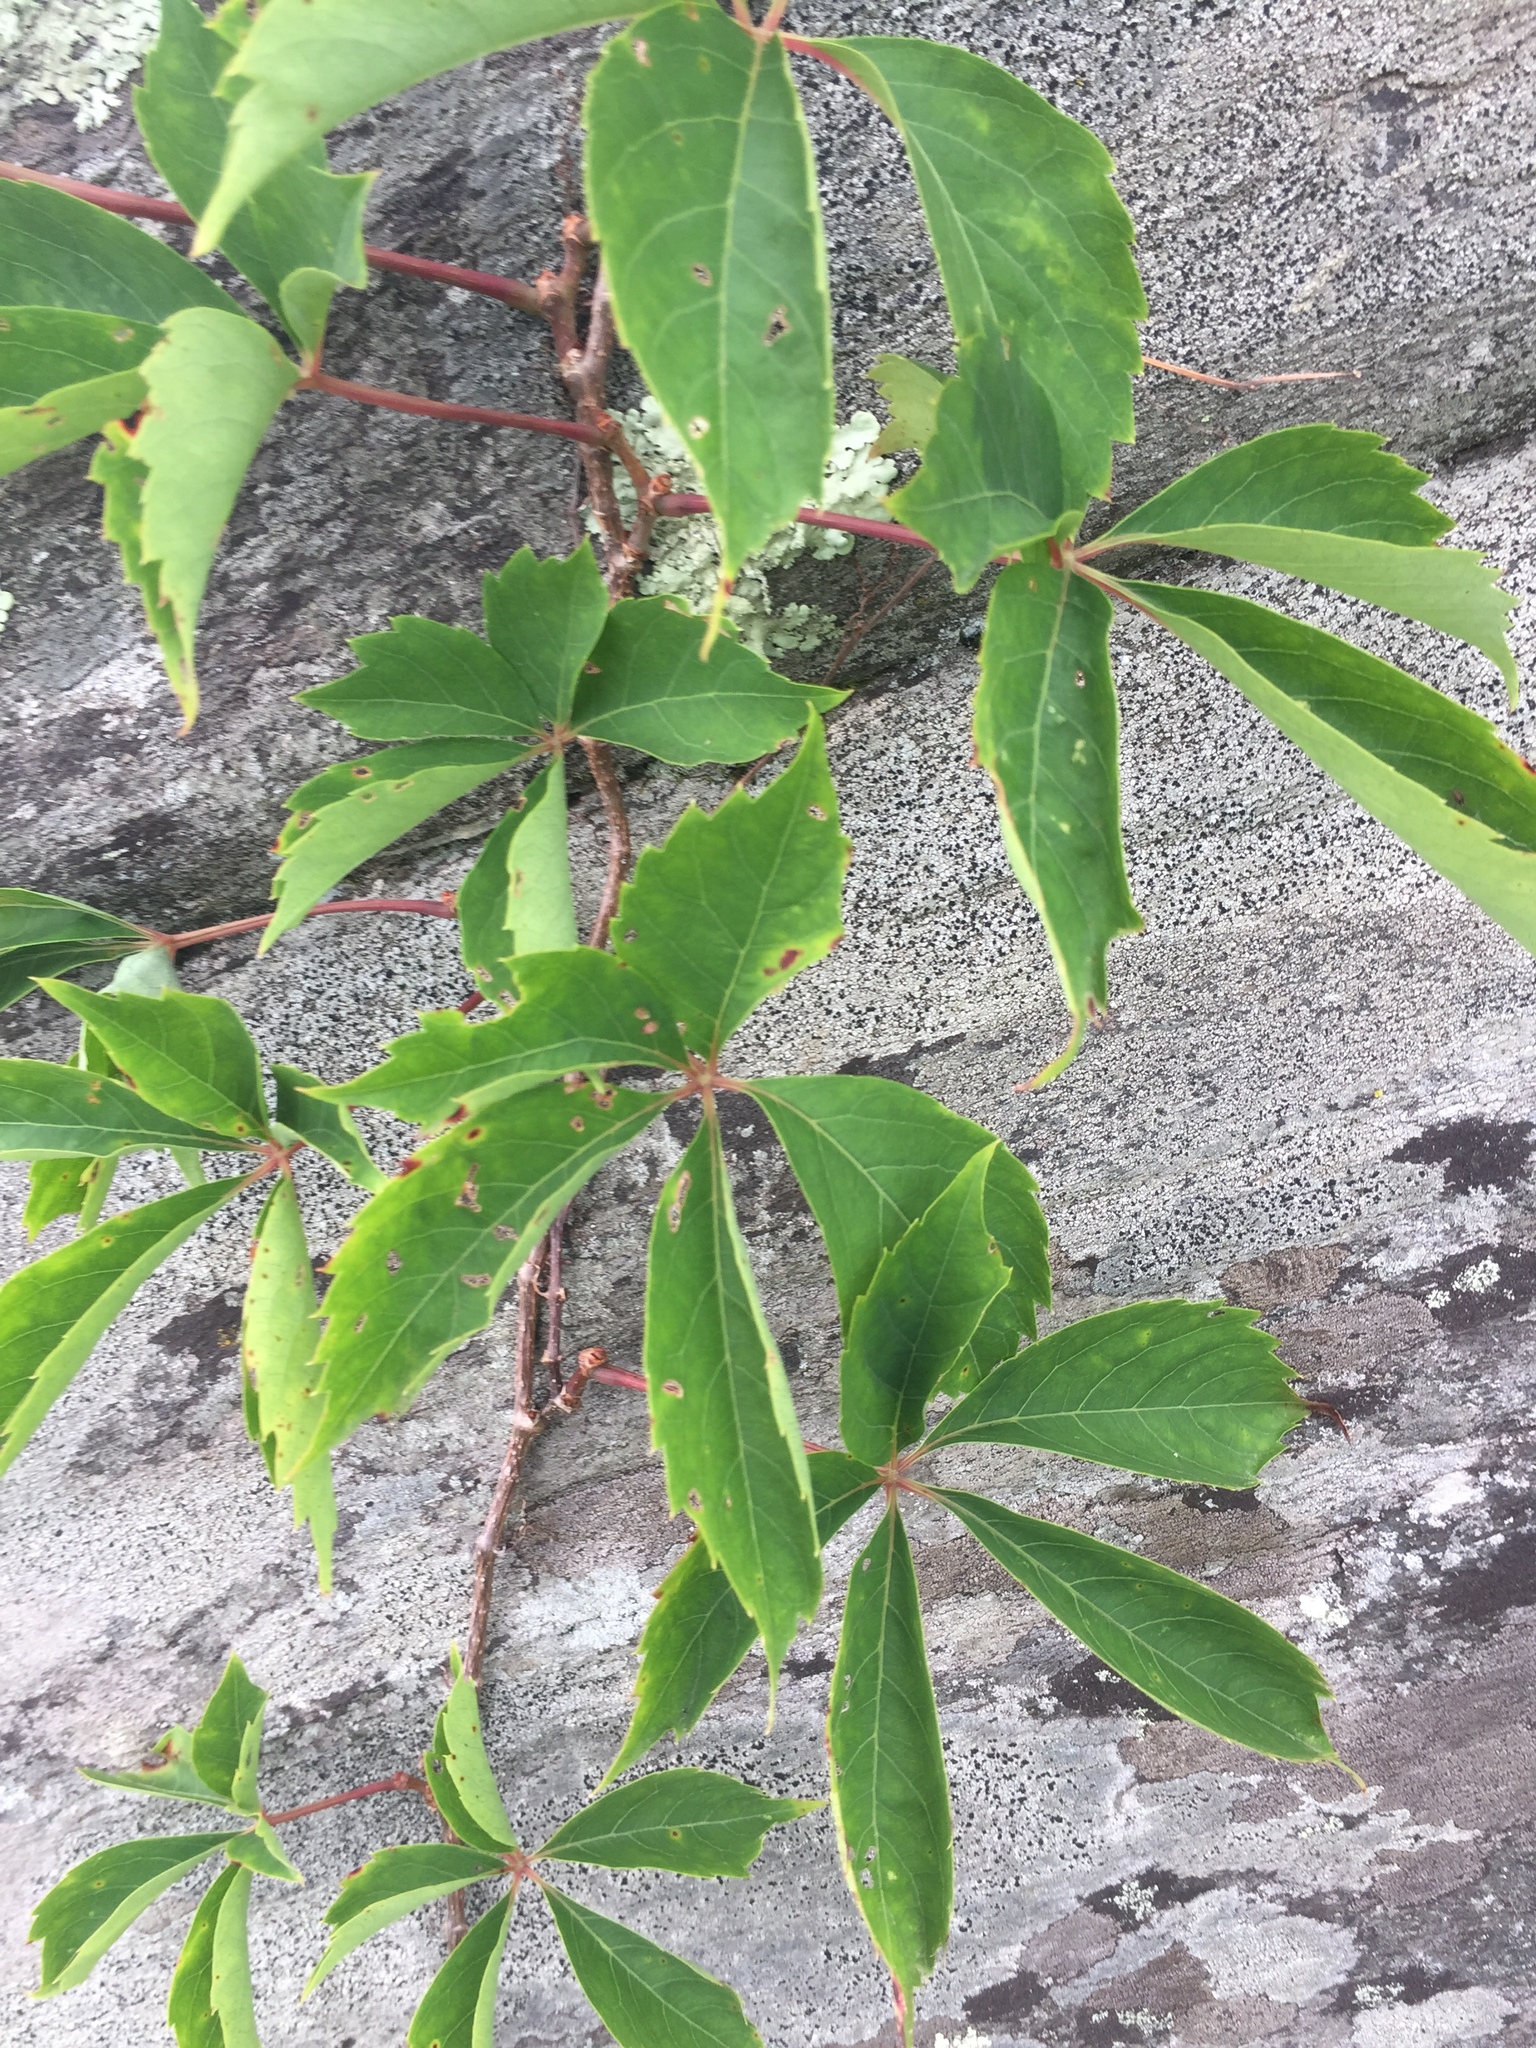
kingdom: Plantae
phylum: Tracheophyta
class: Magnoliopsida
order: Vitales
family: Vitaceae
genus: Parthenocissus
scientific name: Parthenocissus quinquefolia
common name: Virginia-creeper
